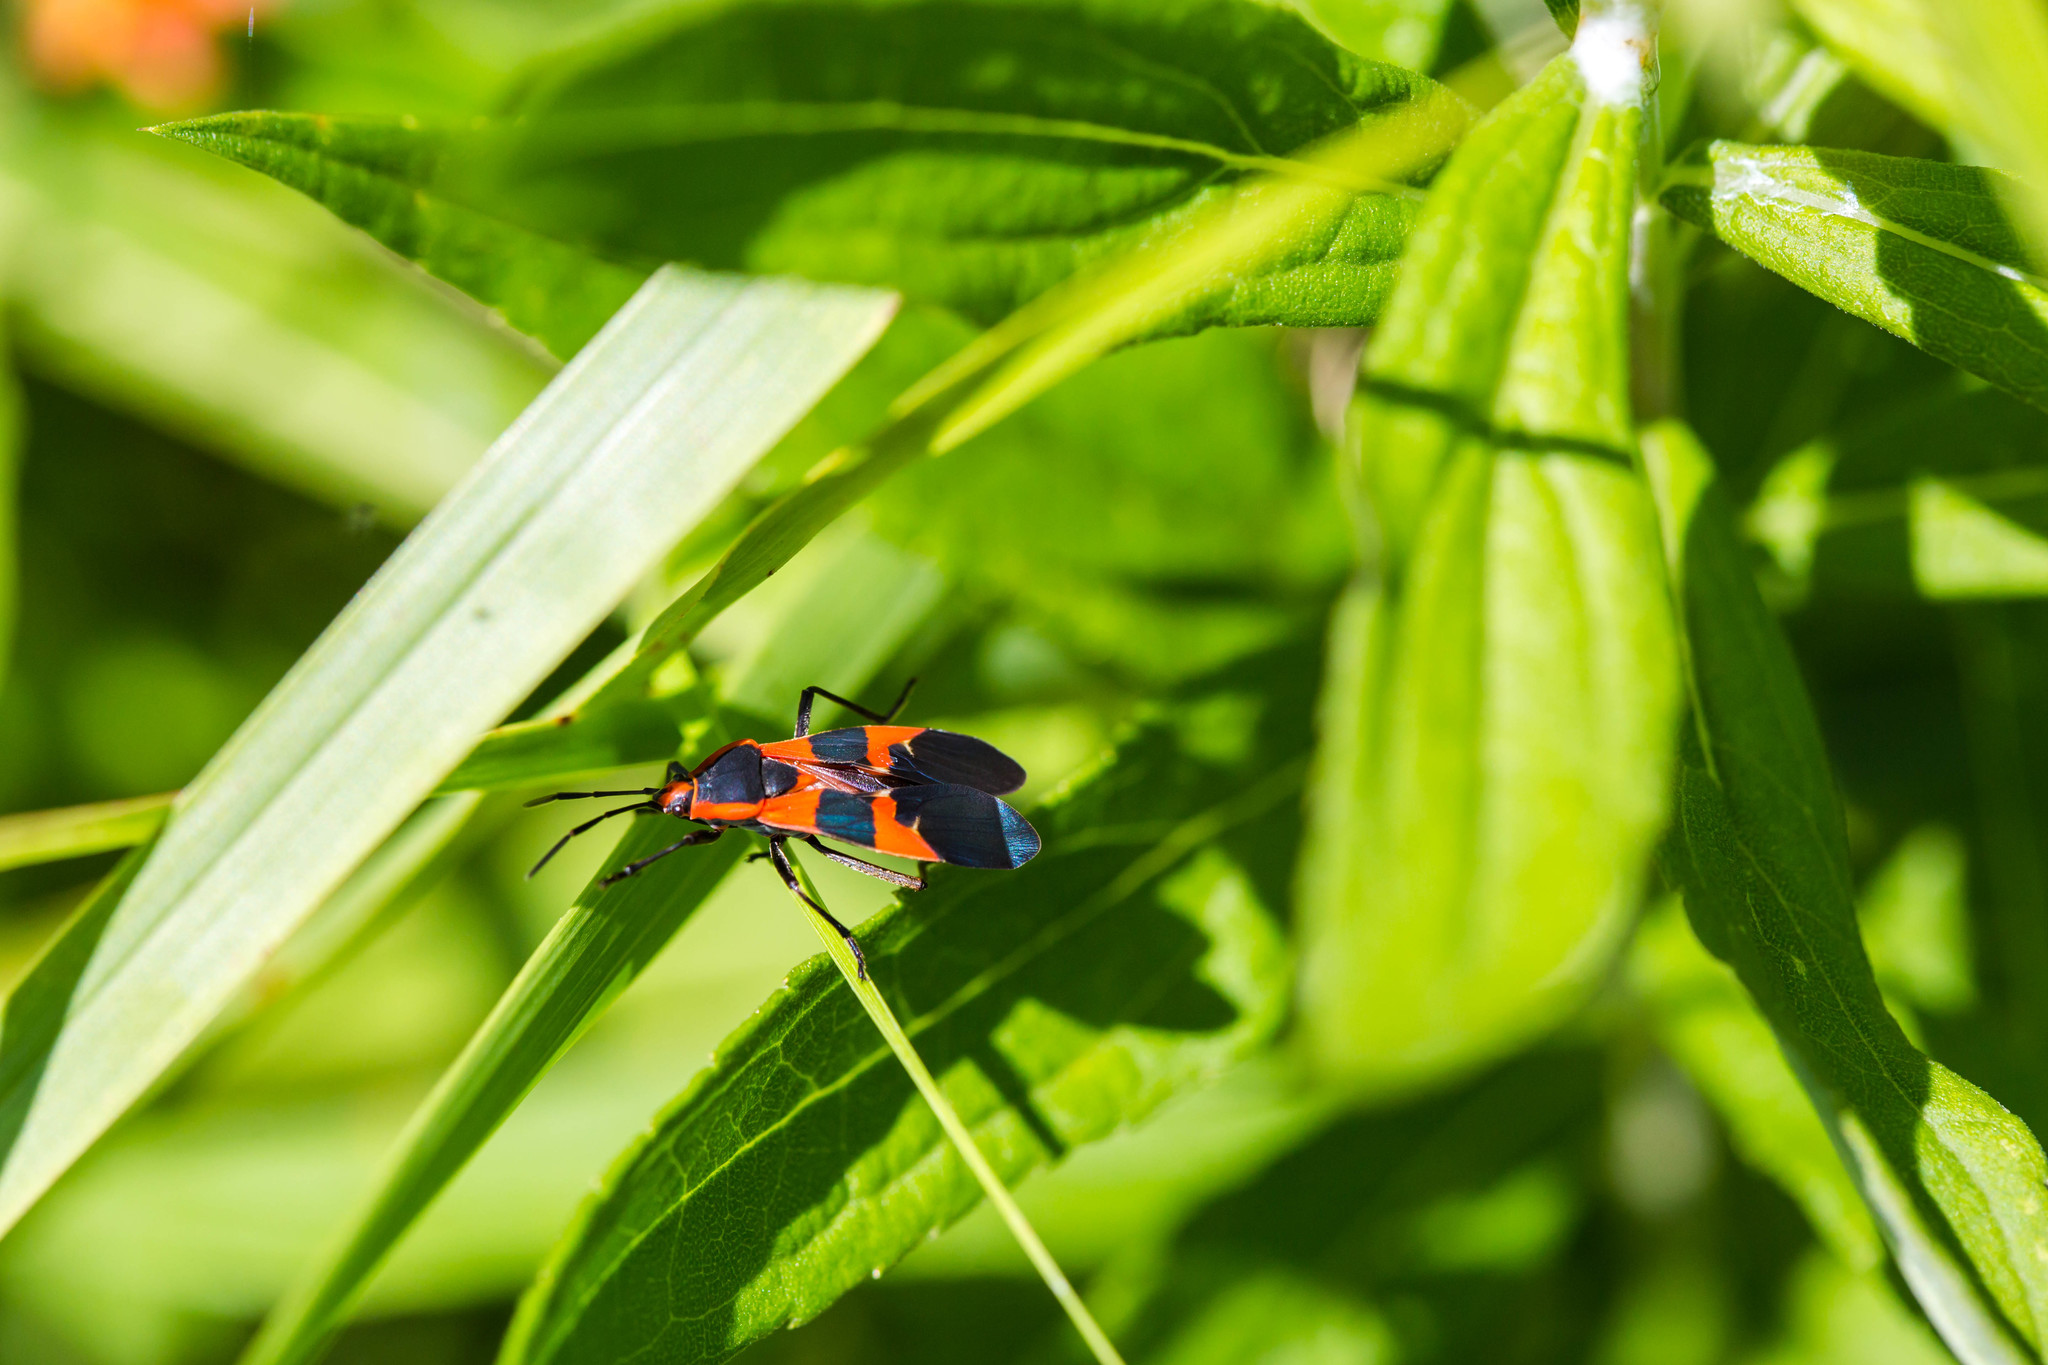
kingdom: Animalia
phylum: Arthropoda
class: Insecta
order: Hemiptera
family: Lygaeidae
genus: Oncopeltus
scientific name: Oncopeltus fasciatus
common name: Large milkweed bug
